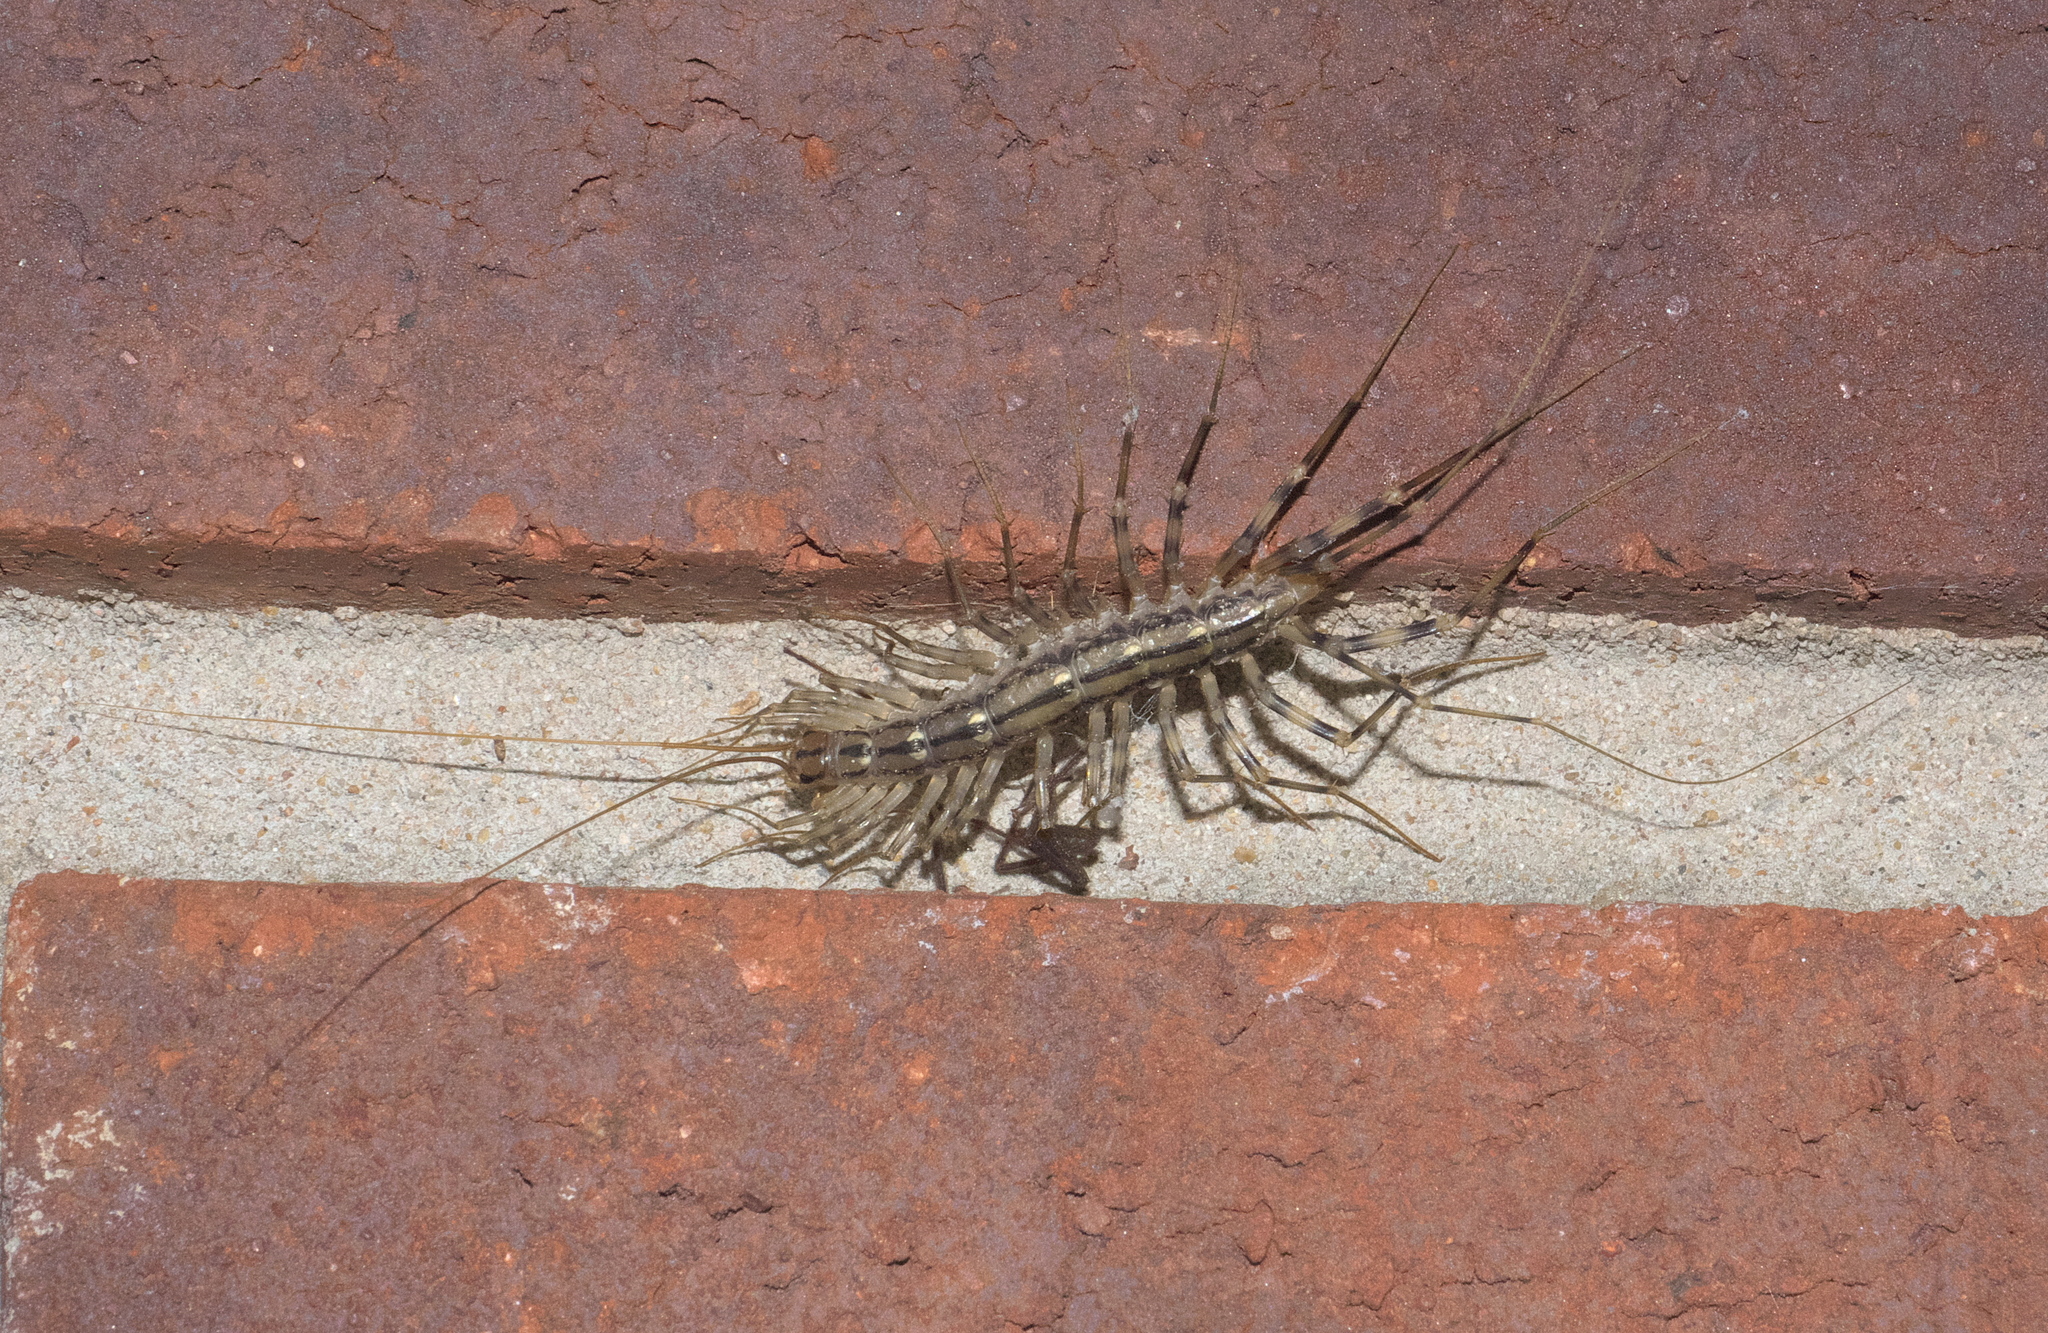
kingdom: Animalia
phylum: Arthropoda
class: Chilopoda
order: Scutigeromorpha
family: Scutigeridae
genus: Scutigera
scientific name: Scutigera coleoptrata
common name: House centipede
